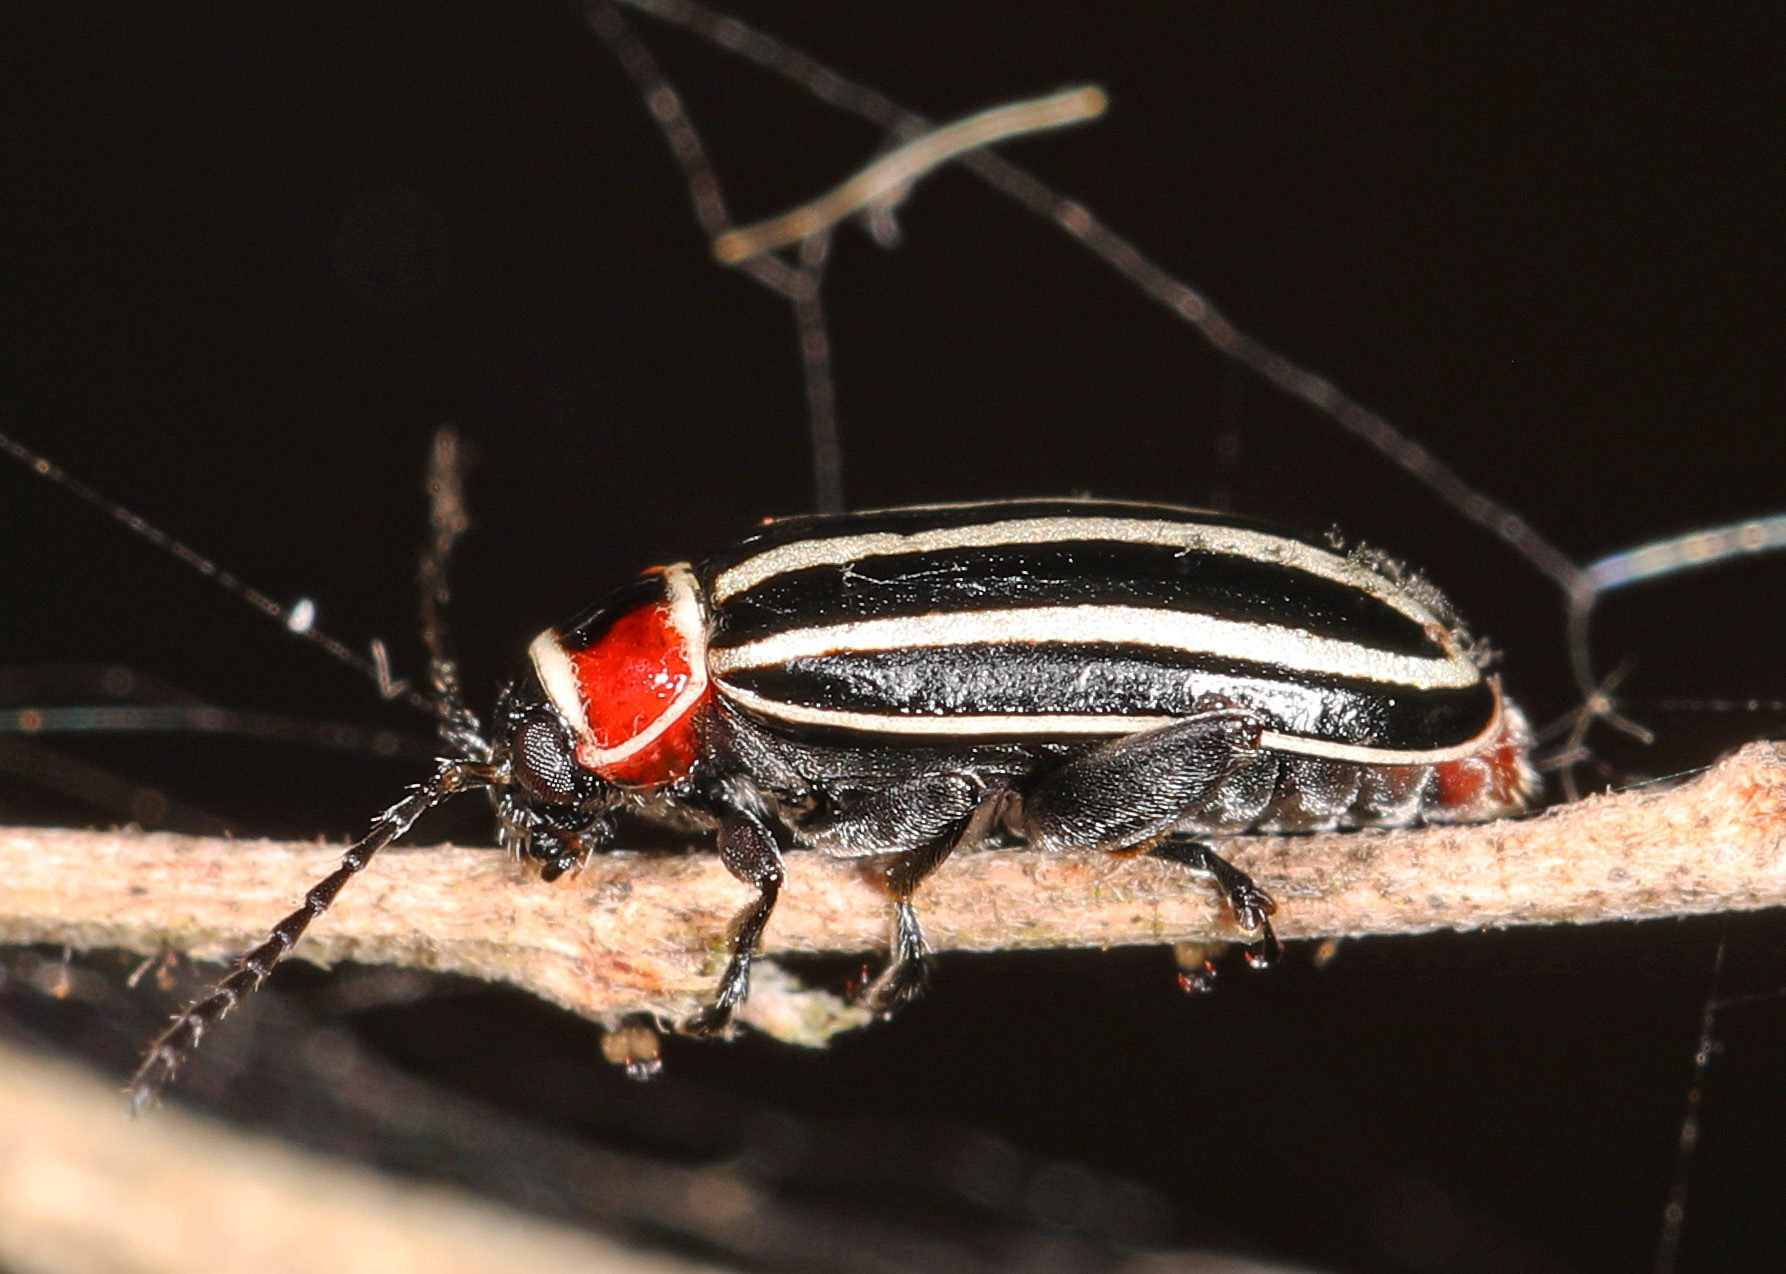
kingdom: Animalia
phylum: Arthropoda
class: Insecta
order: Coleoptera
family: Chrysomelidae
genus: Disonycha
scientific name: Disonycha pensylvanica
